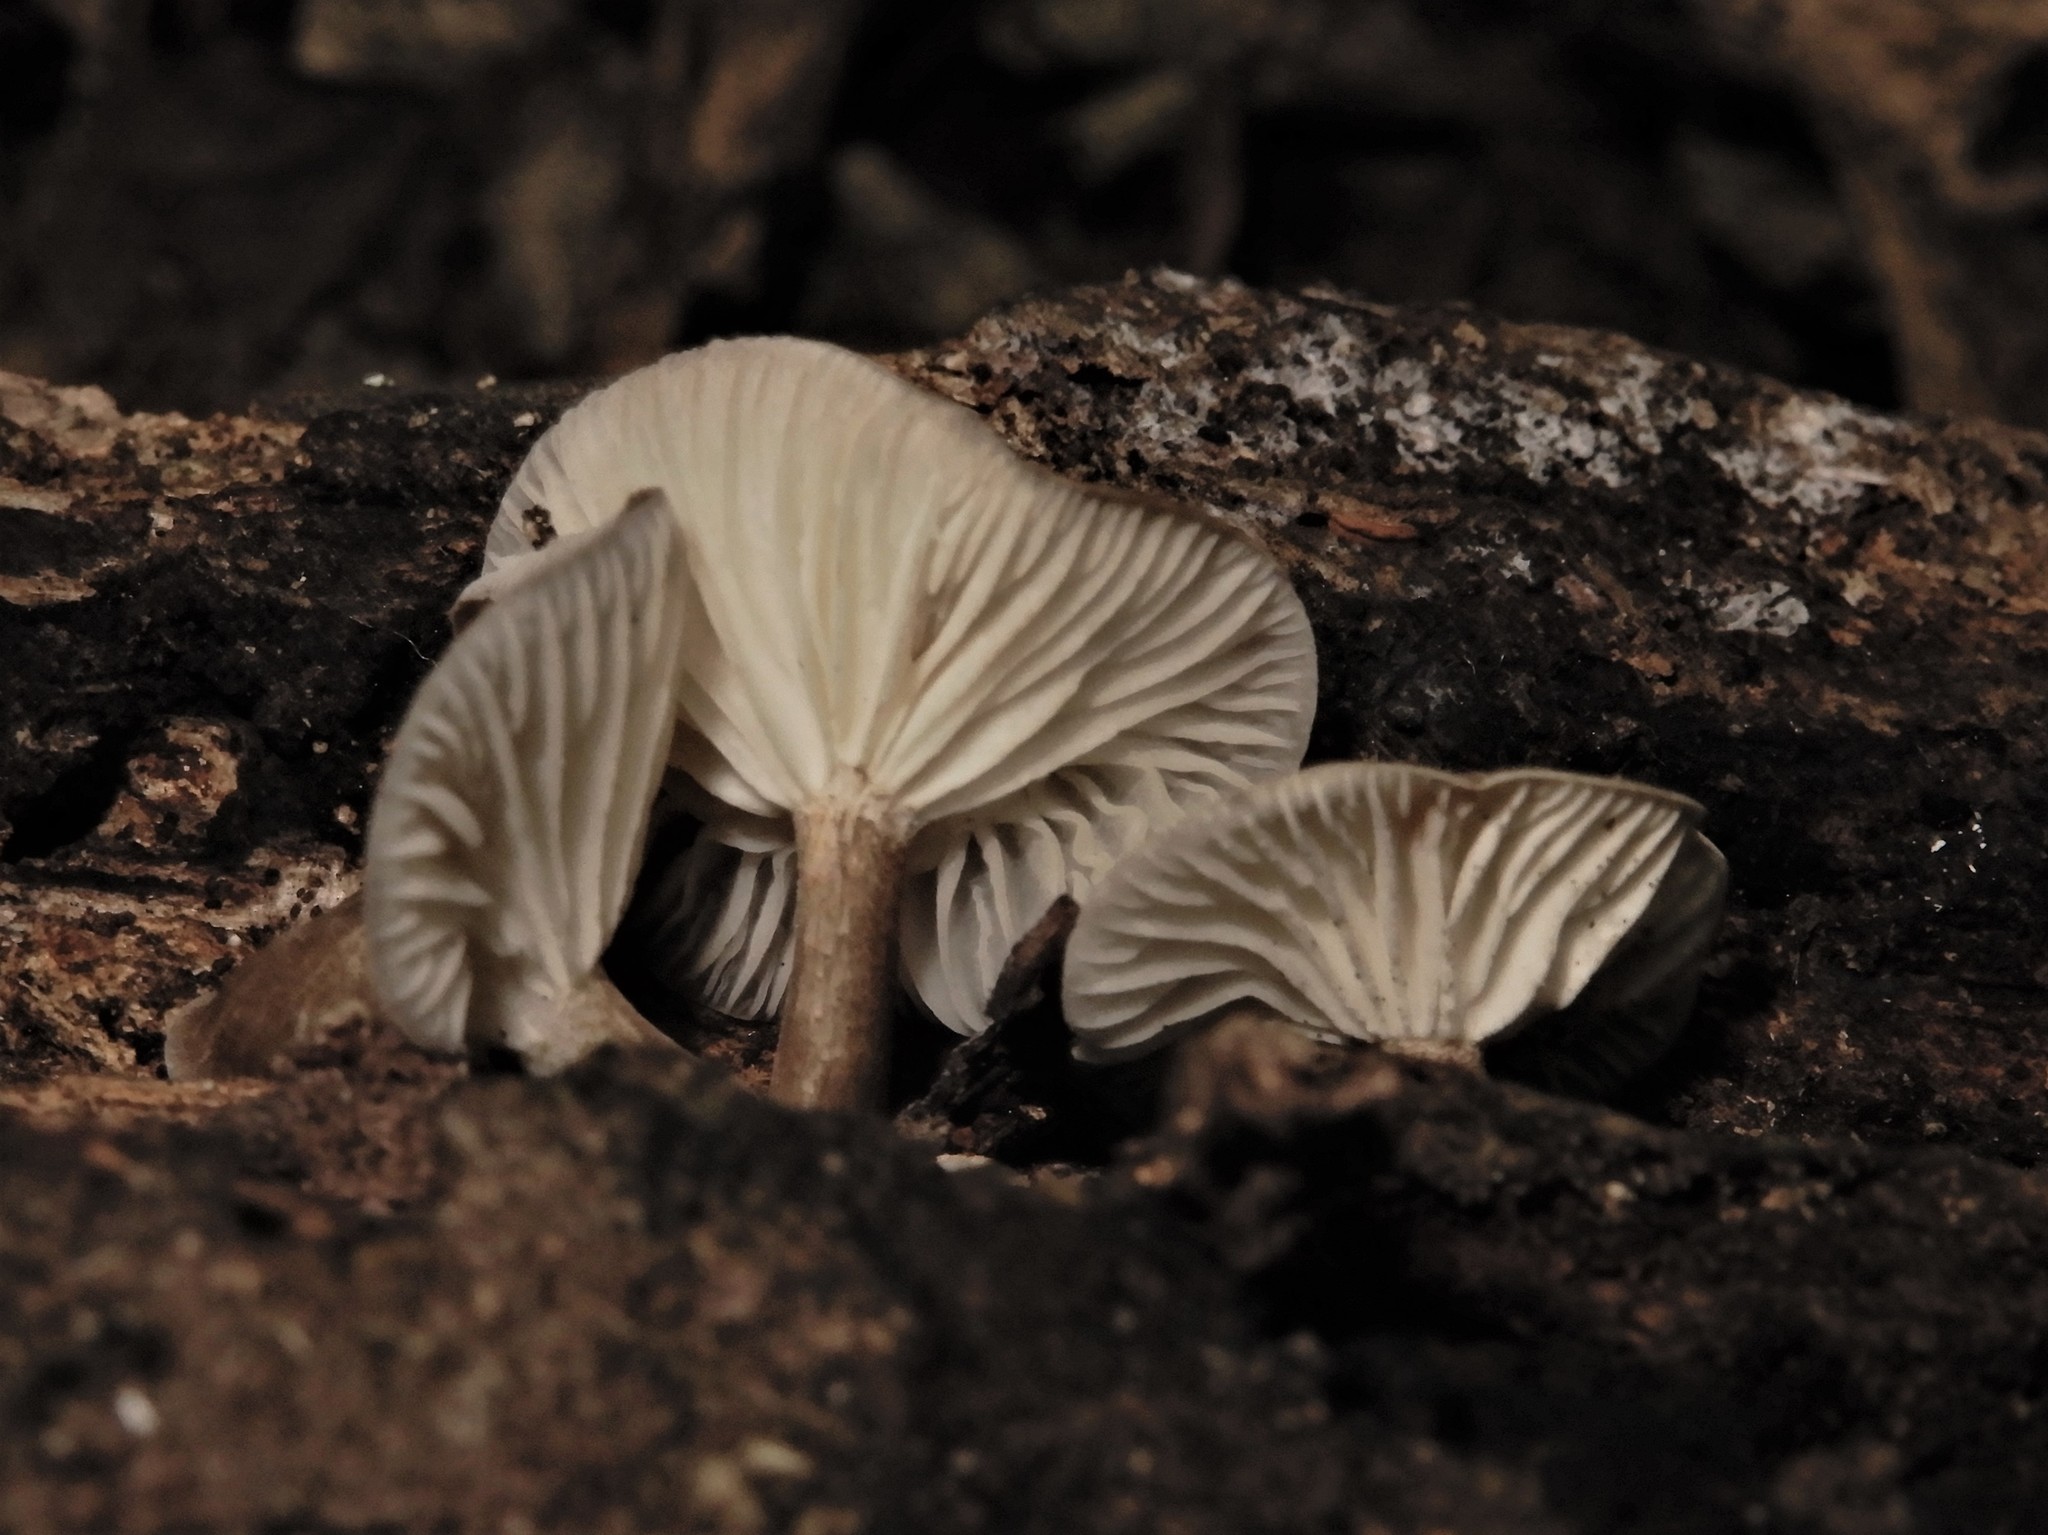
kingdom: Fungi
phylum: Basidiomycota
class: Agaricomycetes
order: Agaricales
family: Marasmiaceae
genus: Gerronema
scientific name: Gerronema
